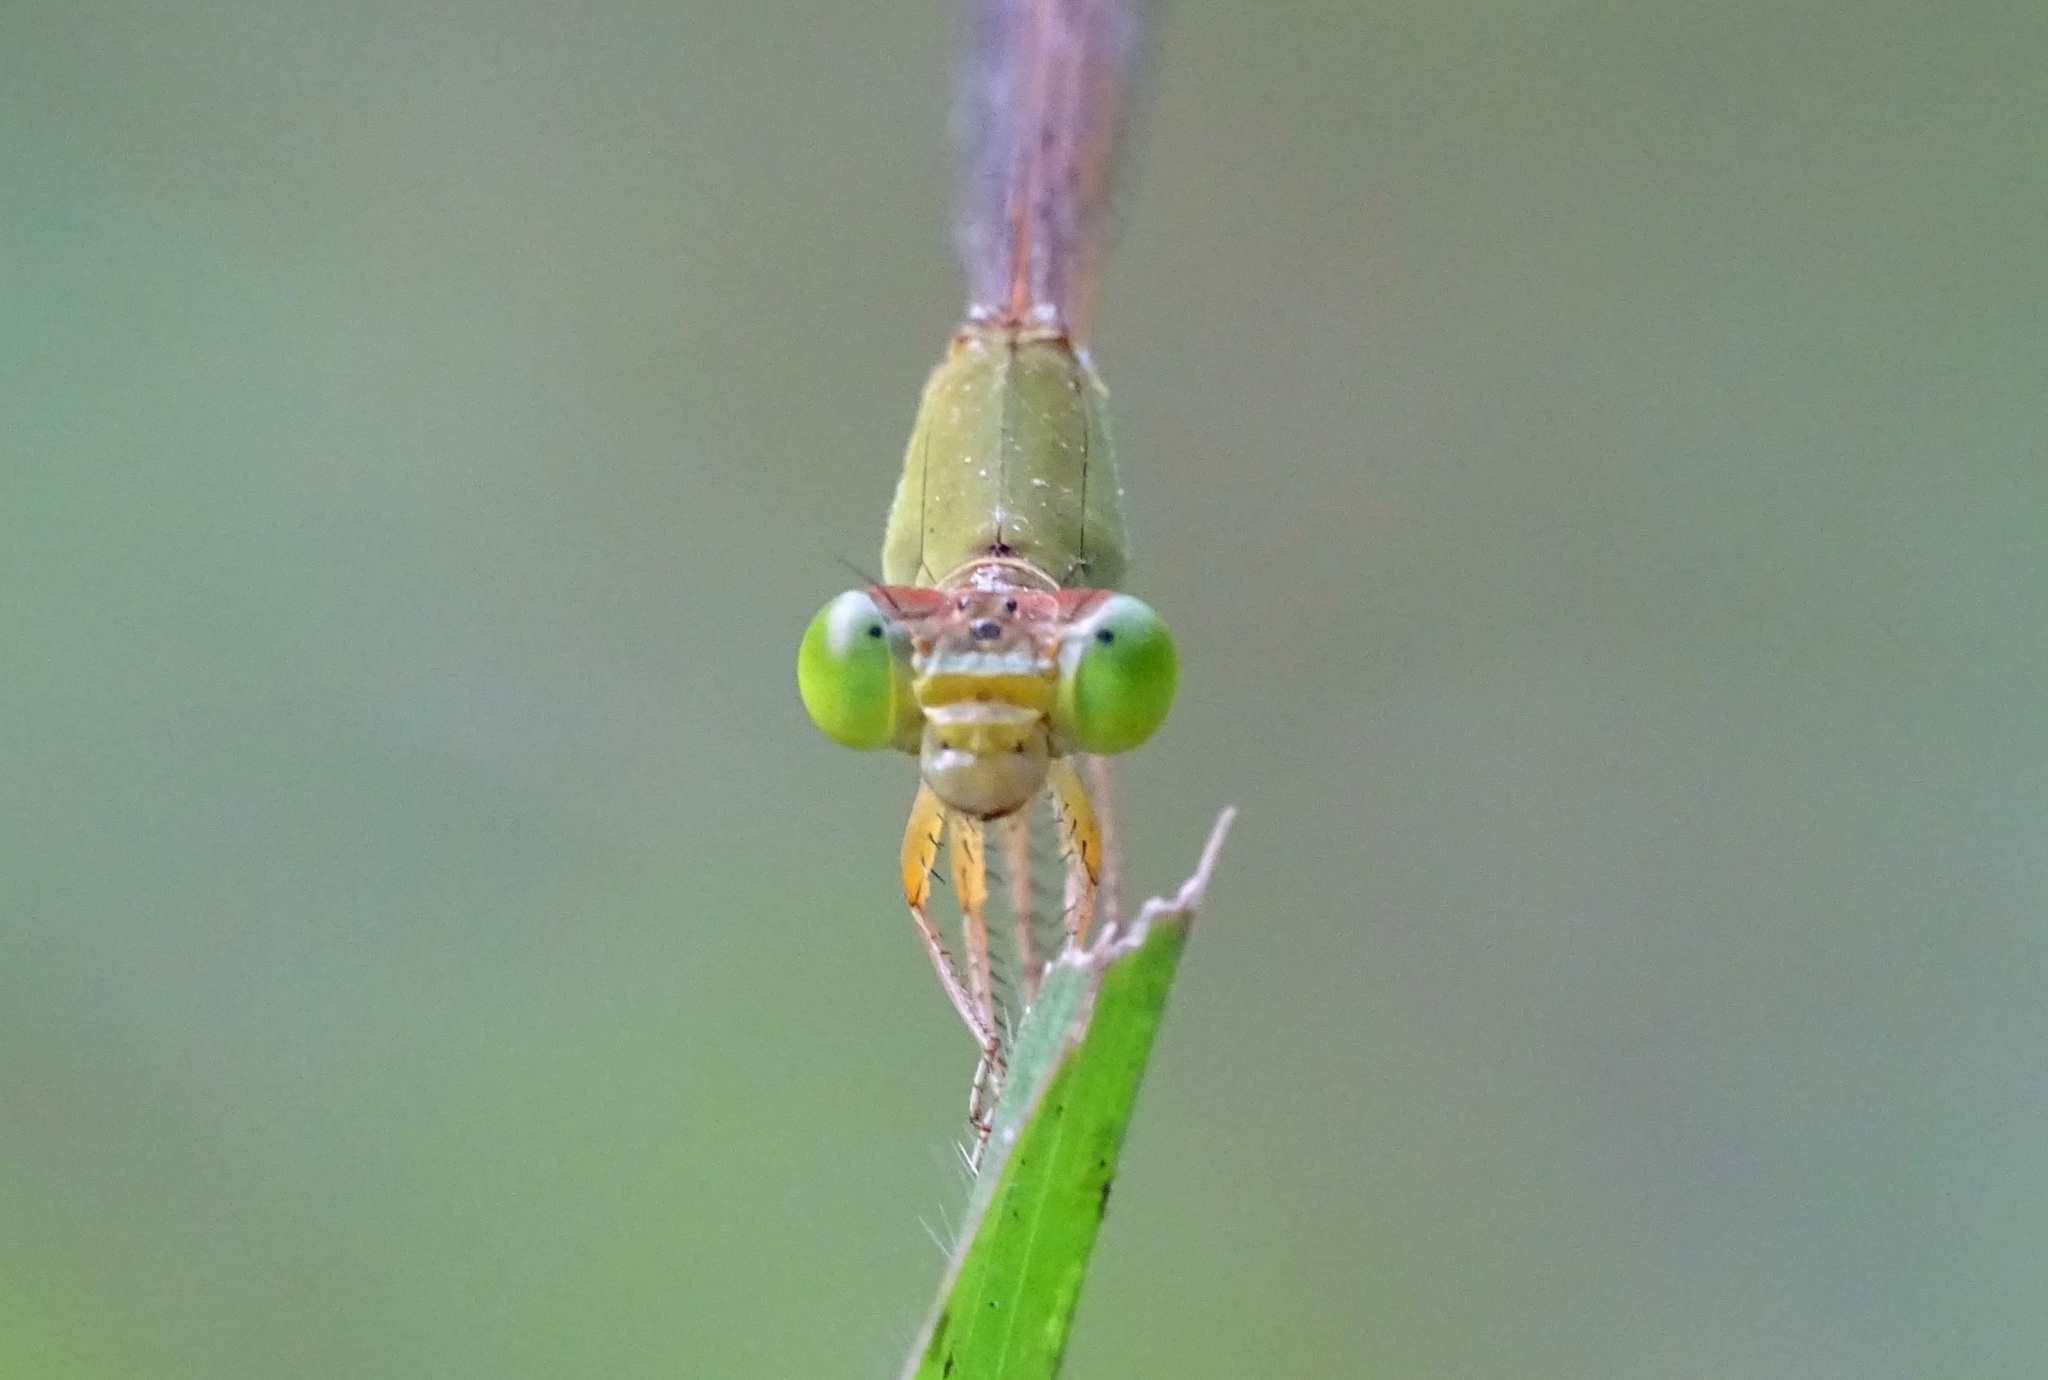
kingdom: Animalia
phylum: Arthropoda
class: Insecta
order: Odonata
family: Coenagrionidae
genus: Ceriagrion
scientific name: Ceriagrion coromandelianum
